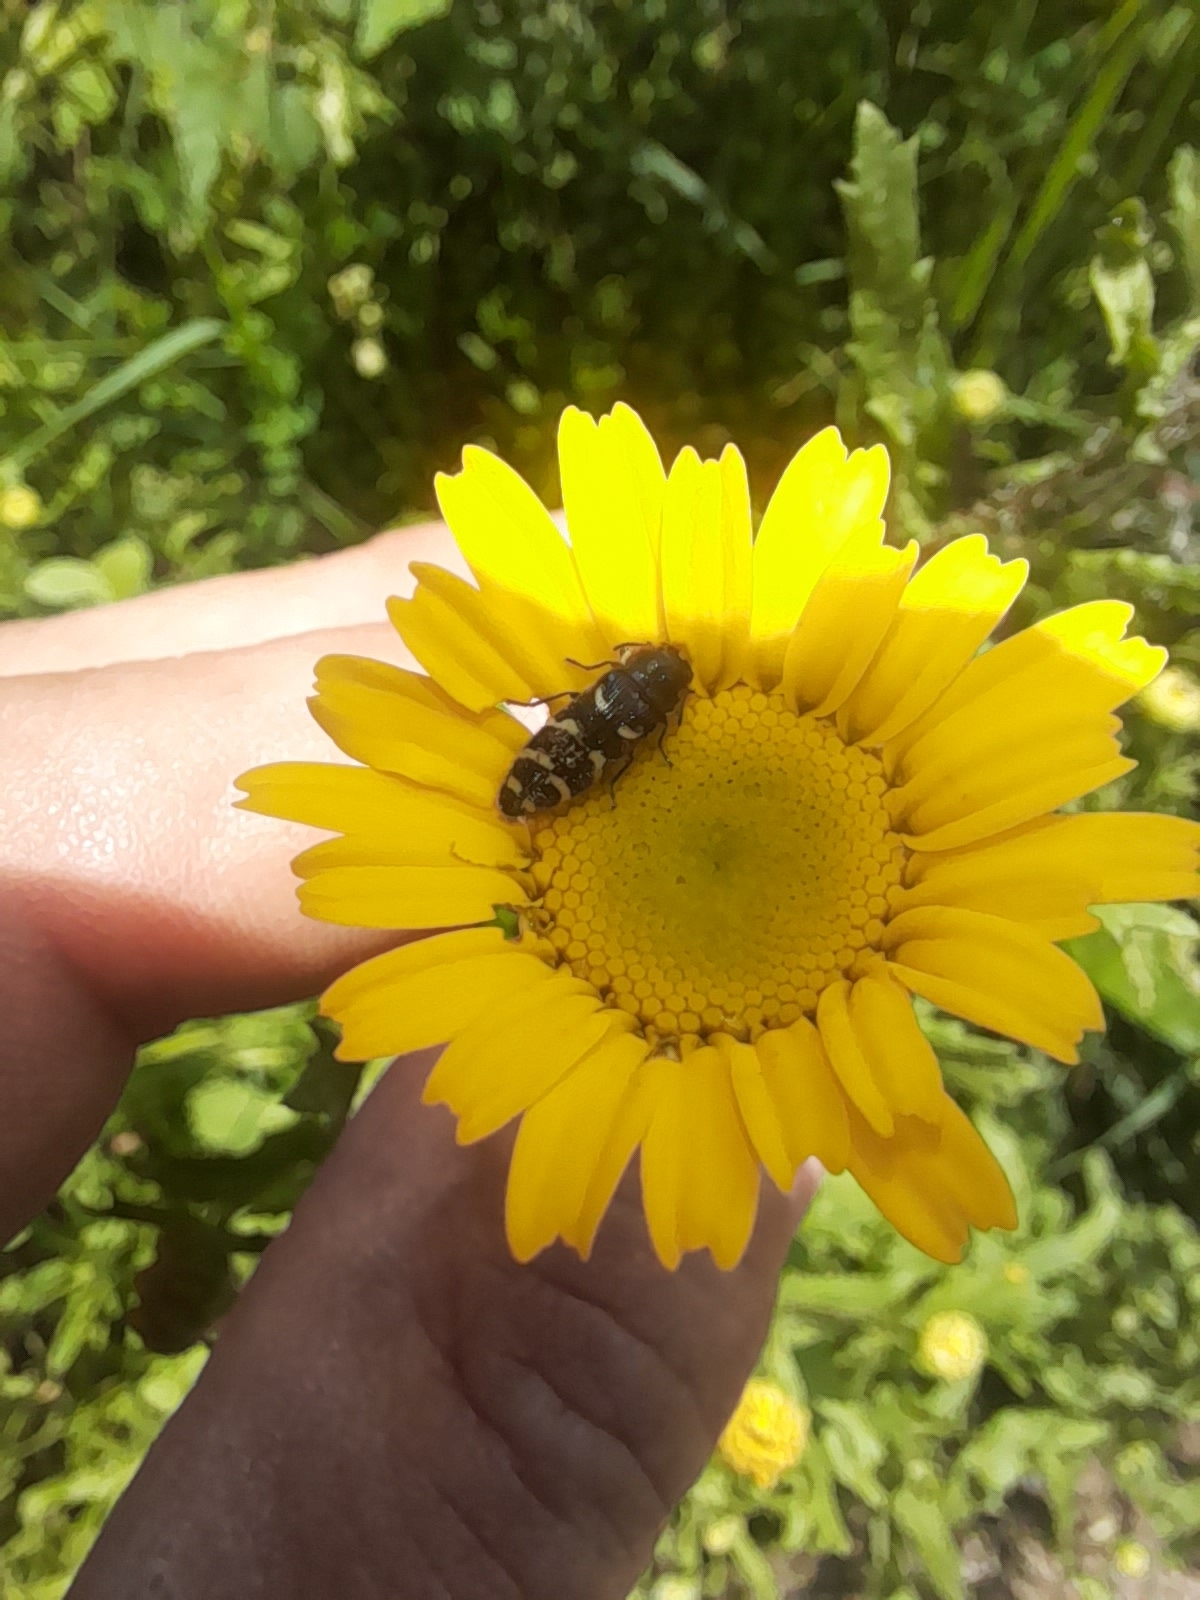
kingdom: Animalia
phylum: Arthropoda
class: Insecta
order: Coleoptera
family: Buprestidae
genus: Acmaeodera
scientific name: Acmaeodera quadrifasciata
